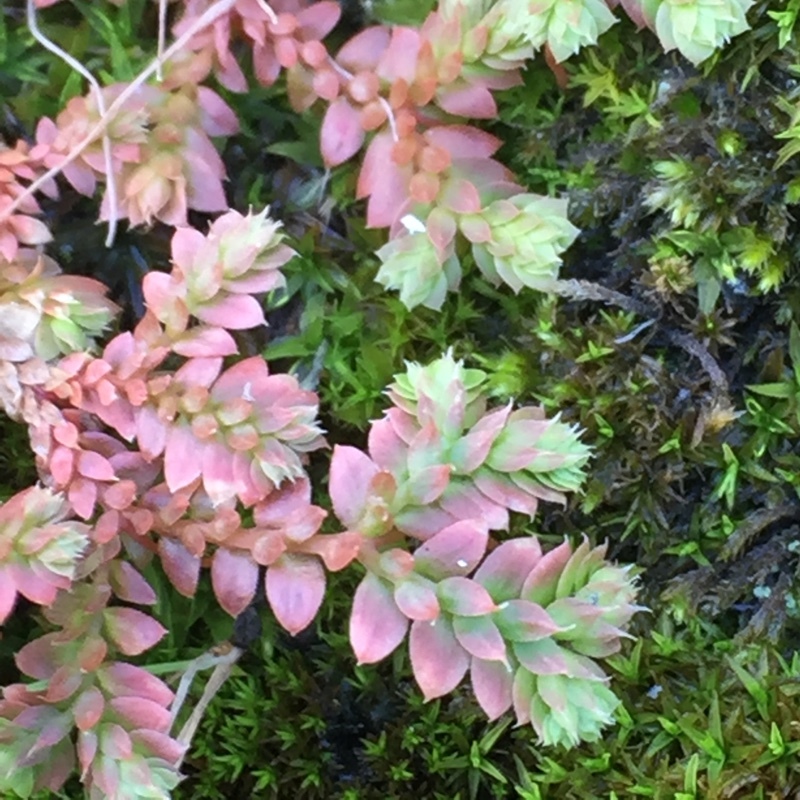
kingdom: Plantae
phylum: Tracheophyta
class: Lycopodiopsida
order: Selaginellales
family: Selaginellaceae
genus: Selaginella
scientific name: Selaginella denticulata
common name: Toothed-leaved clubmoss
